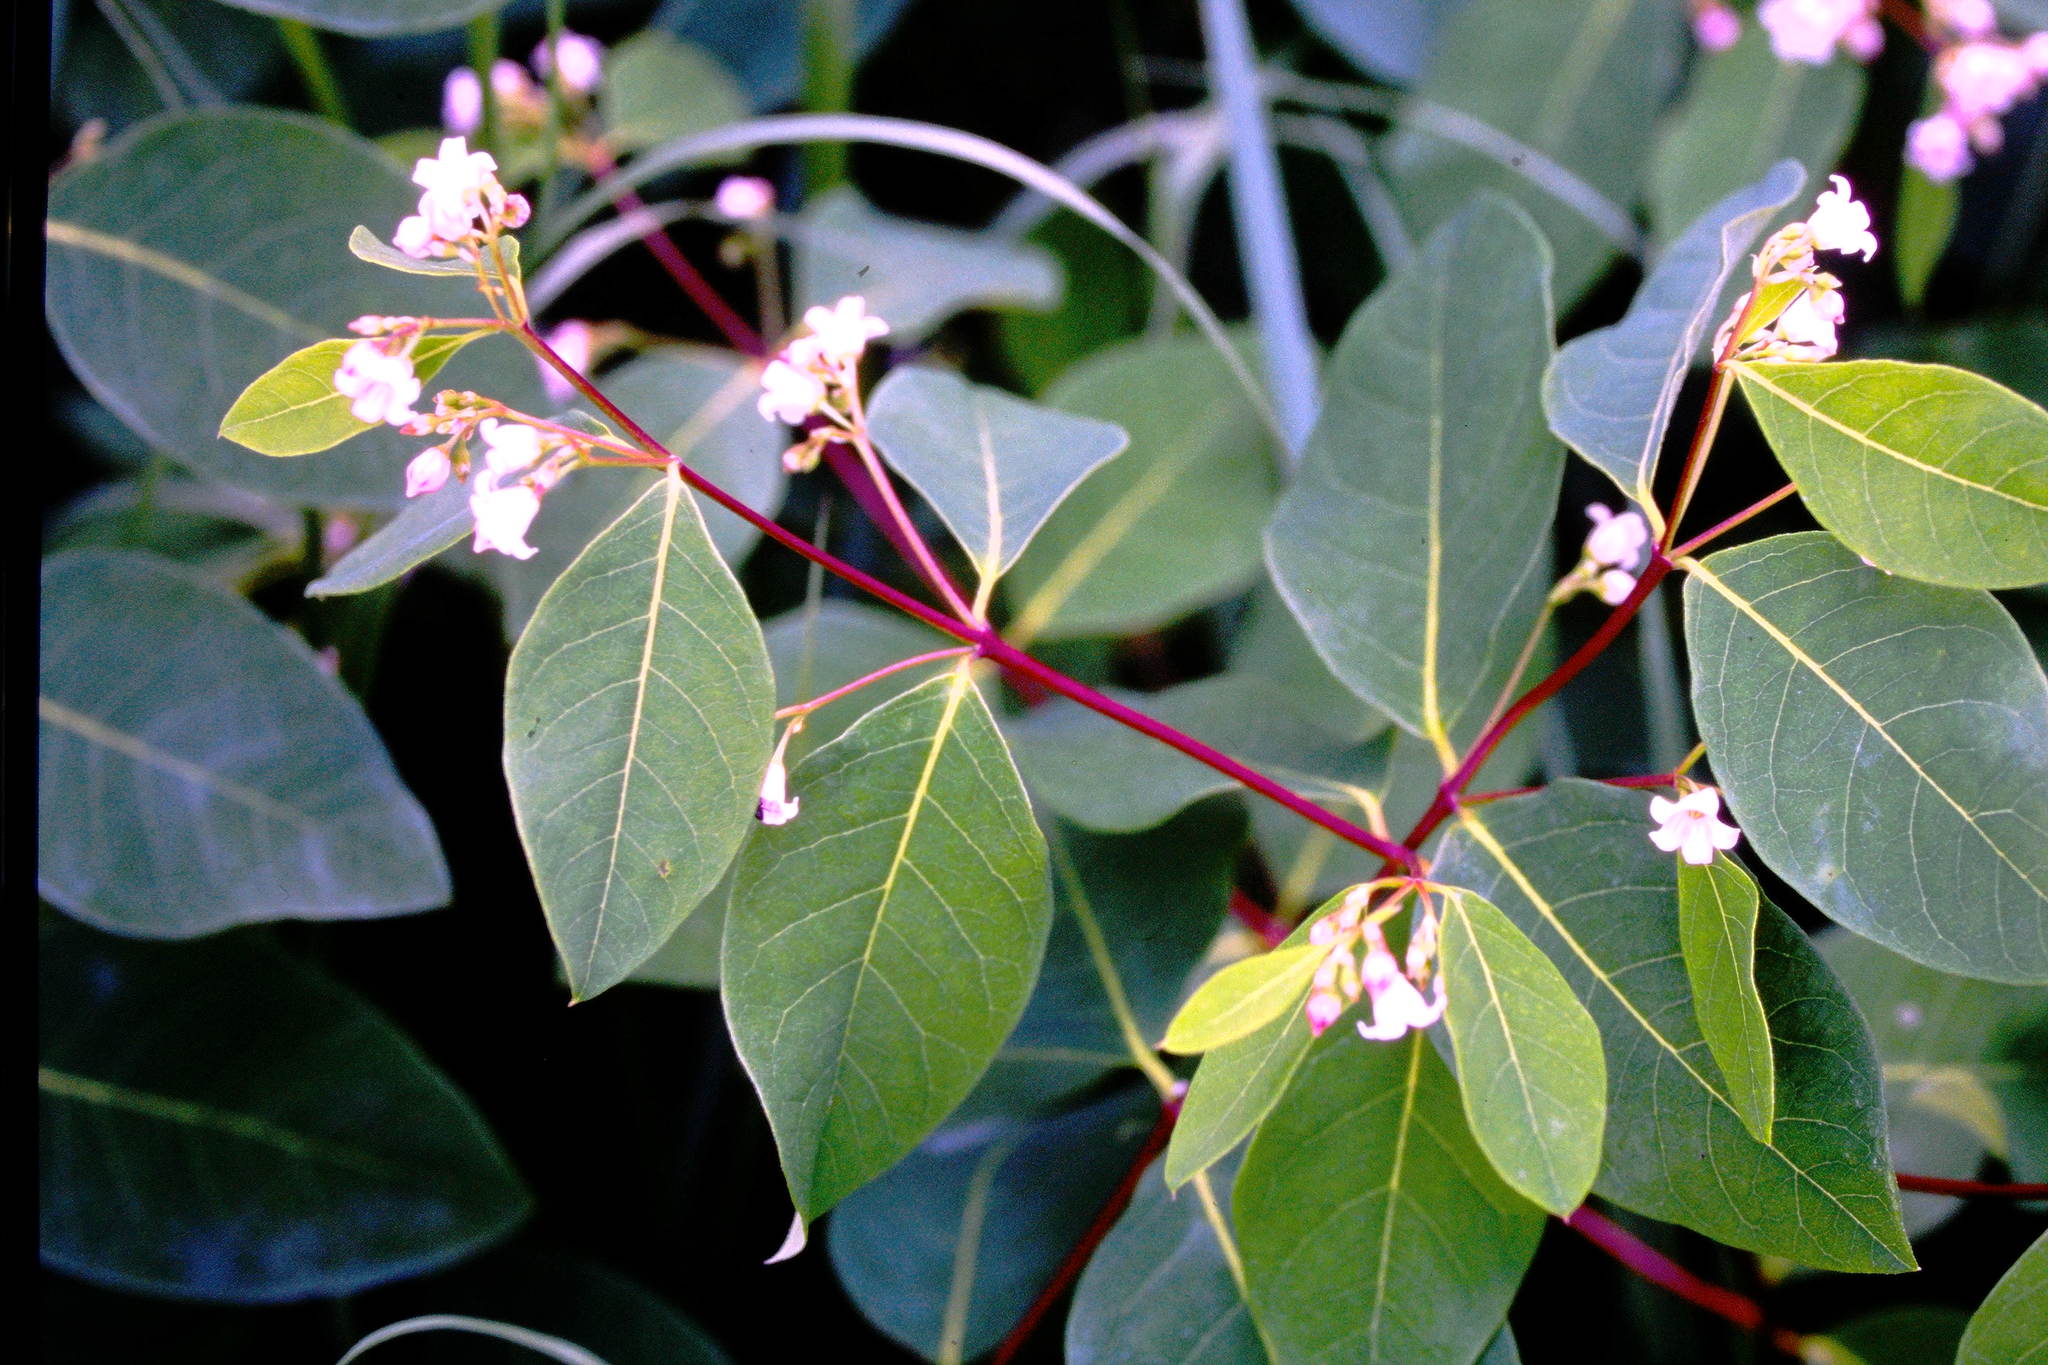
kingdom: Plantae
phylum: Tracheophyta
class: Magnoliopsida
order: Gentianales
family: Apocynaceae
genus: Apocynum
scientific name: Apocynum androsaemifolium
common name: Spreading dogbane
